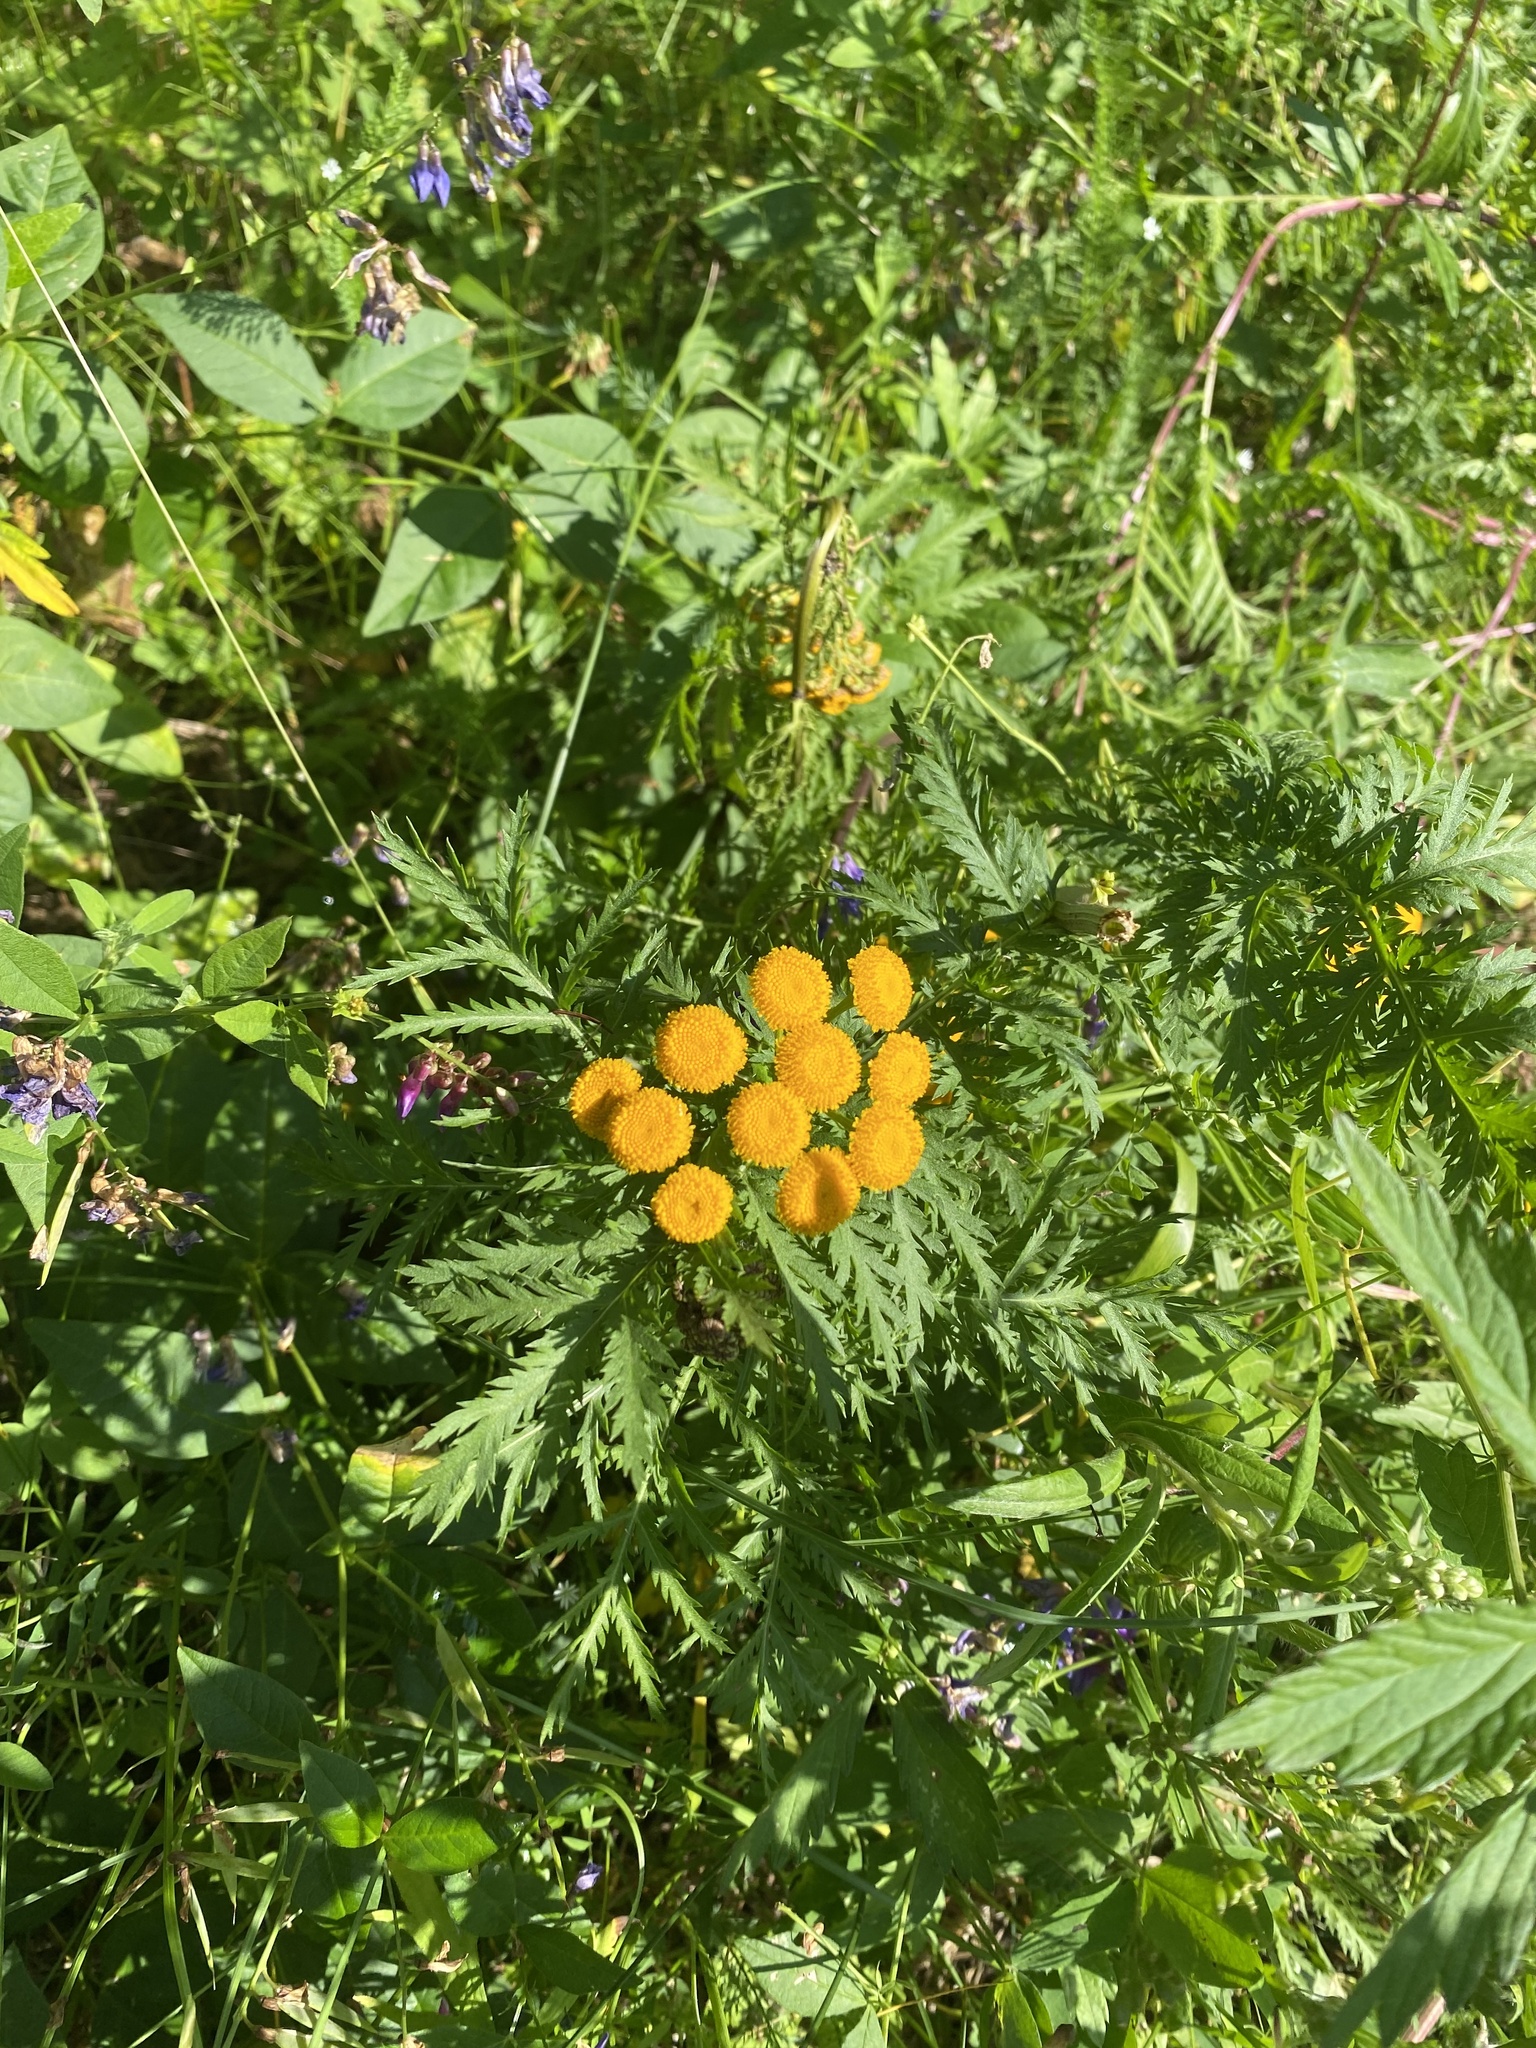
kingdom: Plantae
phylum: Tracheophyta
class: Magnoliopsida
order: Asterales
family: Asteraceae
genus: Tanacetum
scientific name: Tanacetum vulgare
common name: Common tansy
